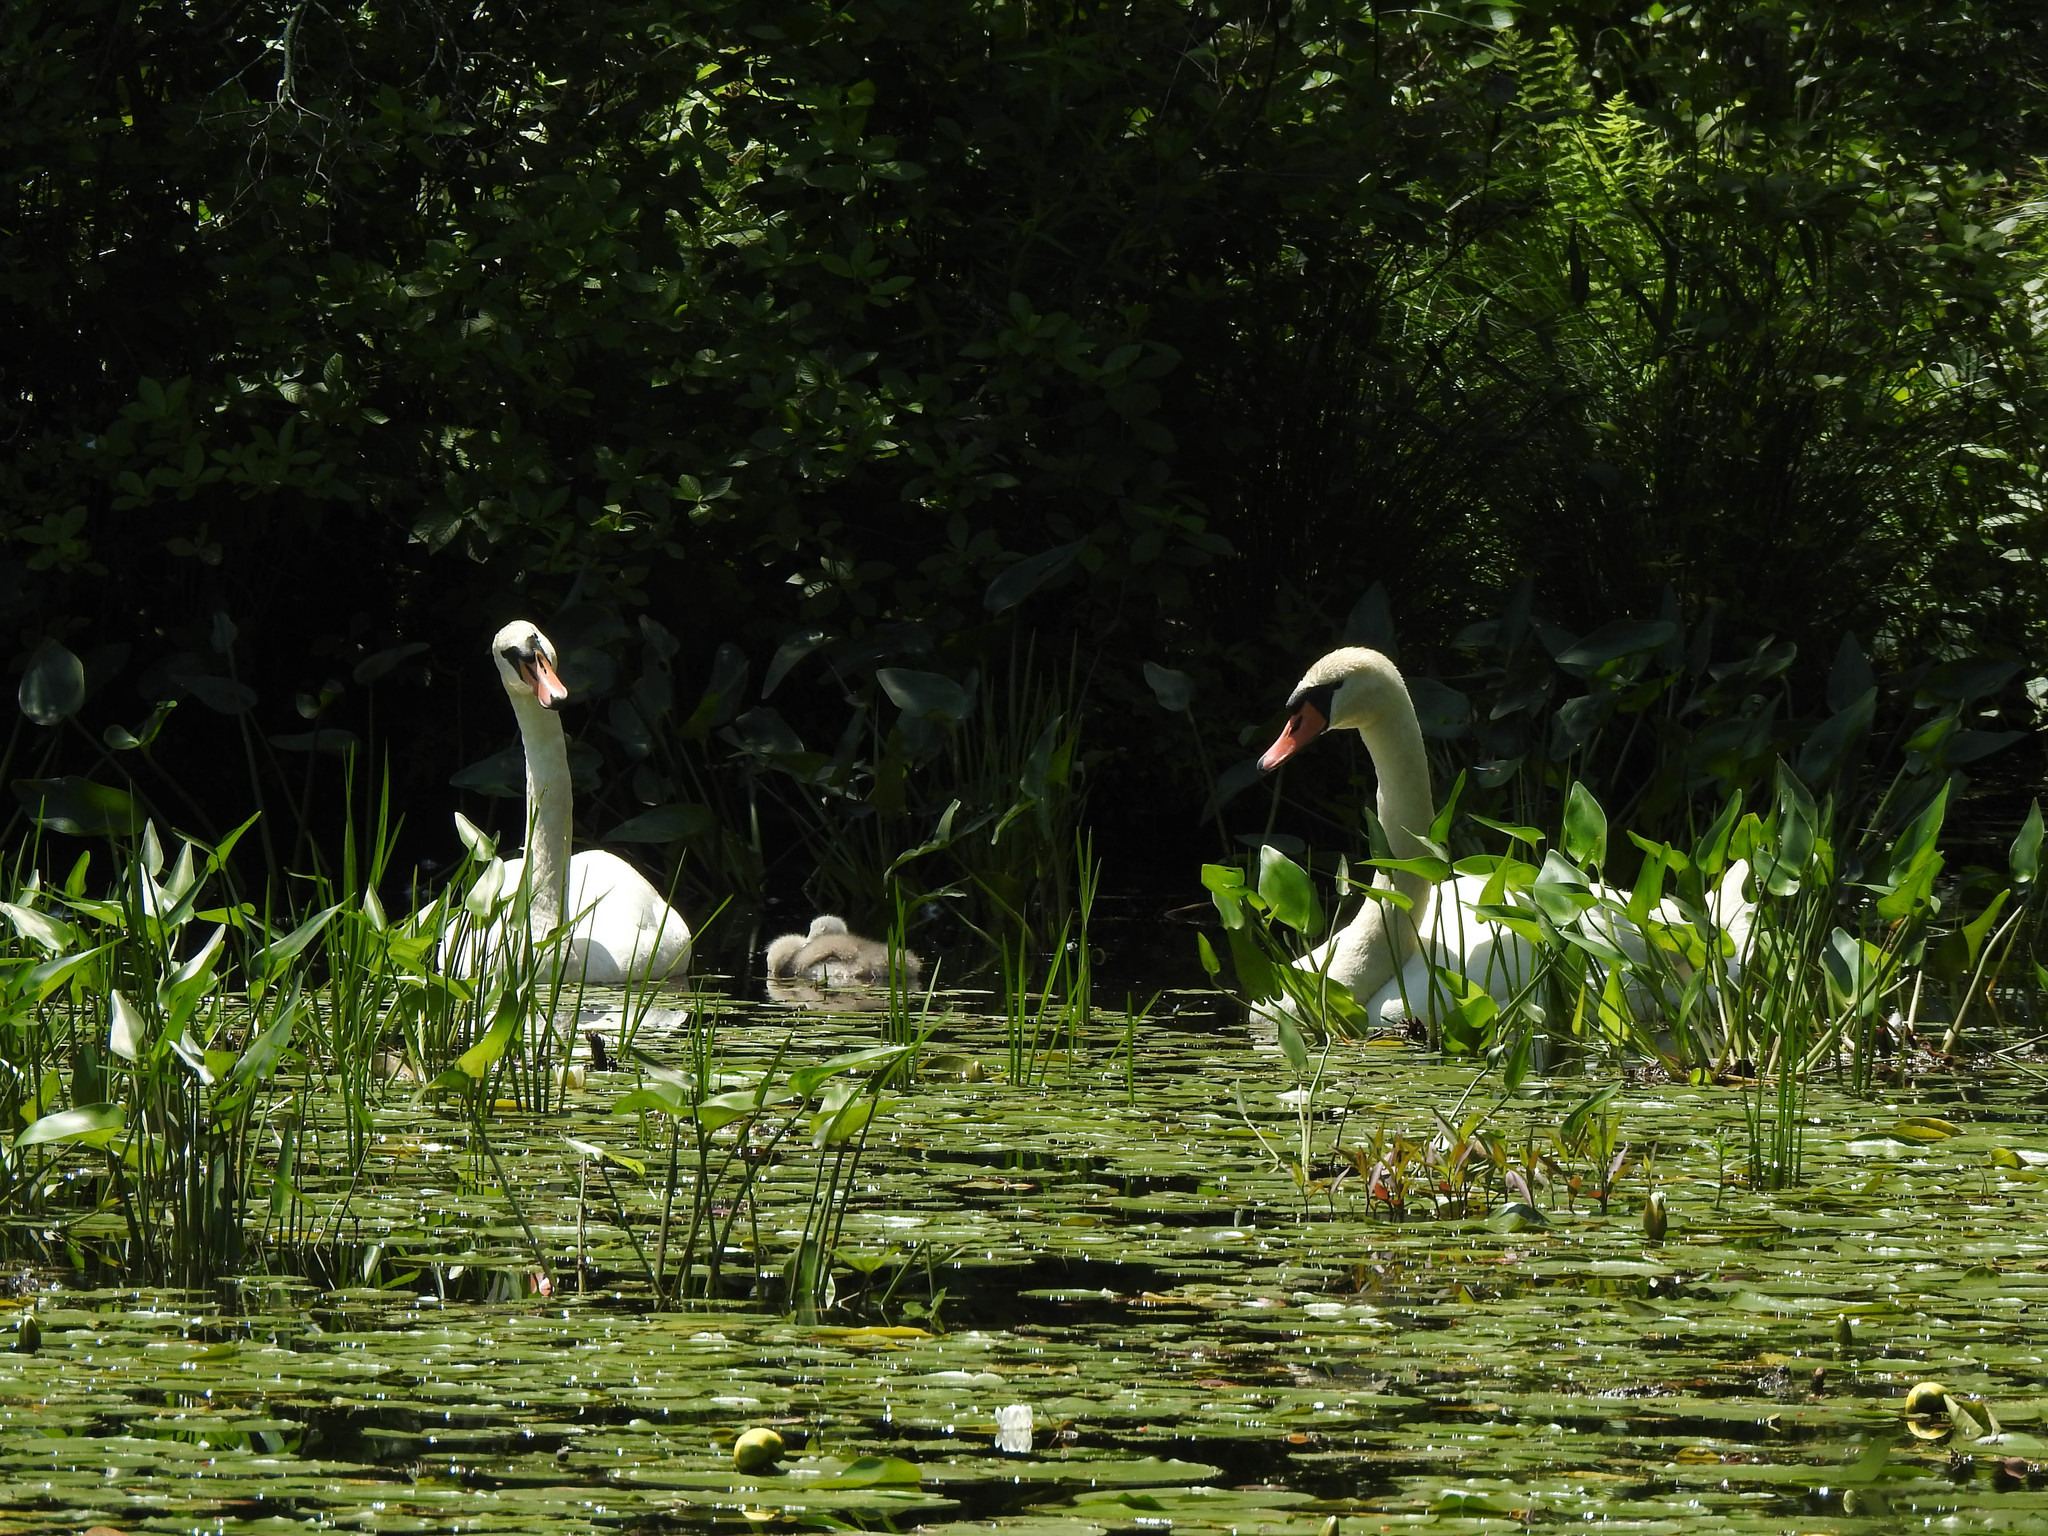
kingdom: Animalia
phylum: Chordata
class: Aves
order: Anseriformes
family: Anatidae
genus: Cygnus
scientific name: Cygnus olor
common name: Mute swan
